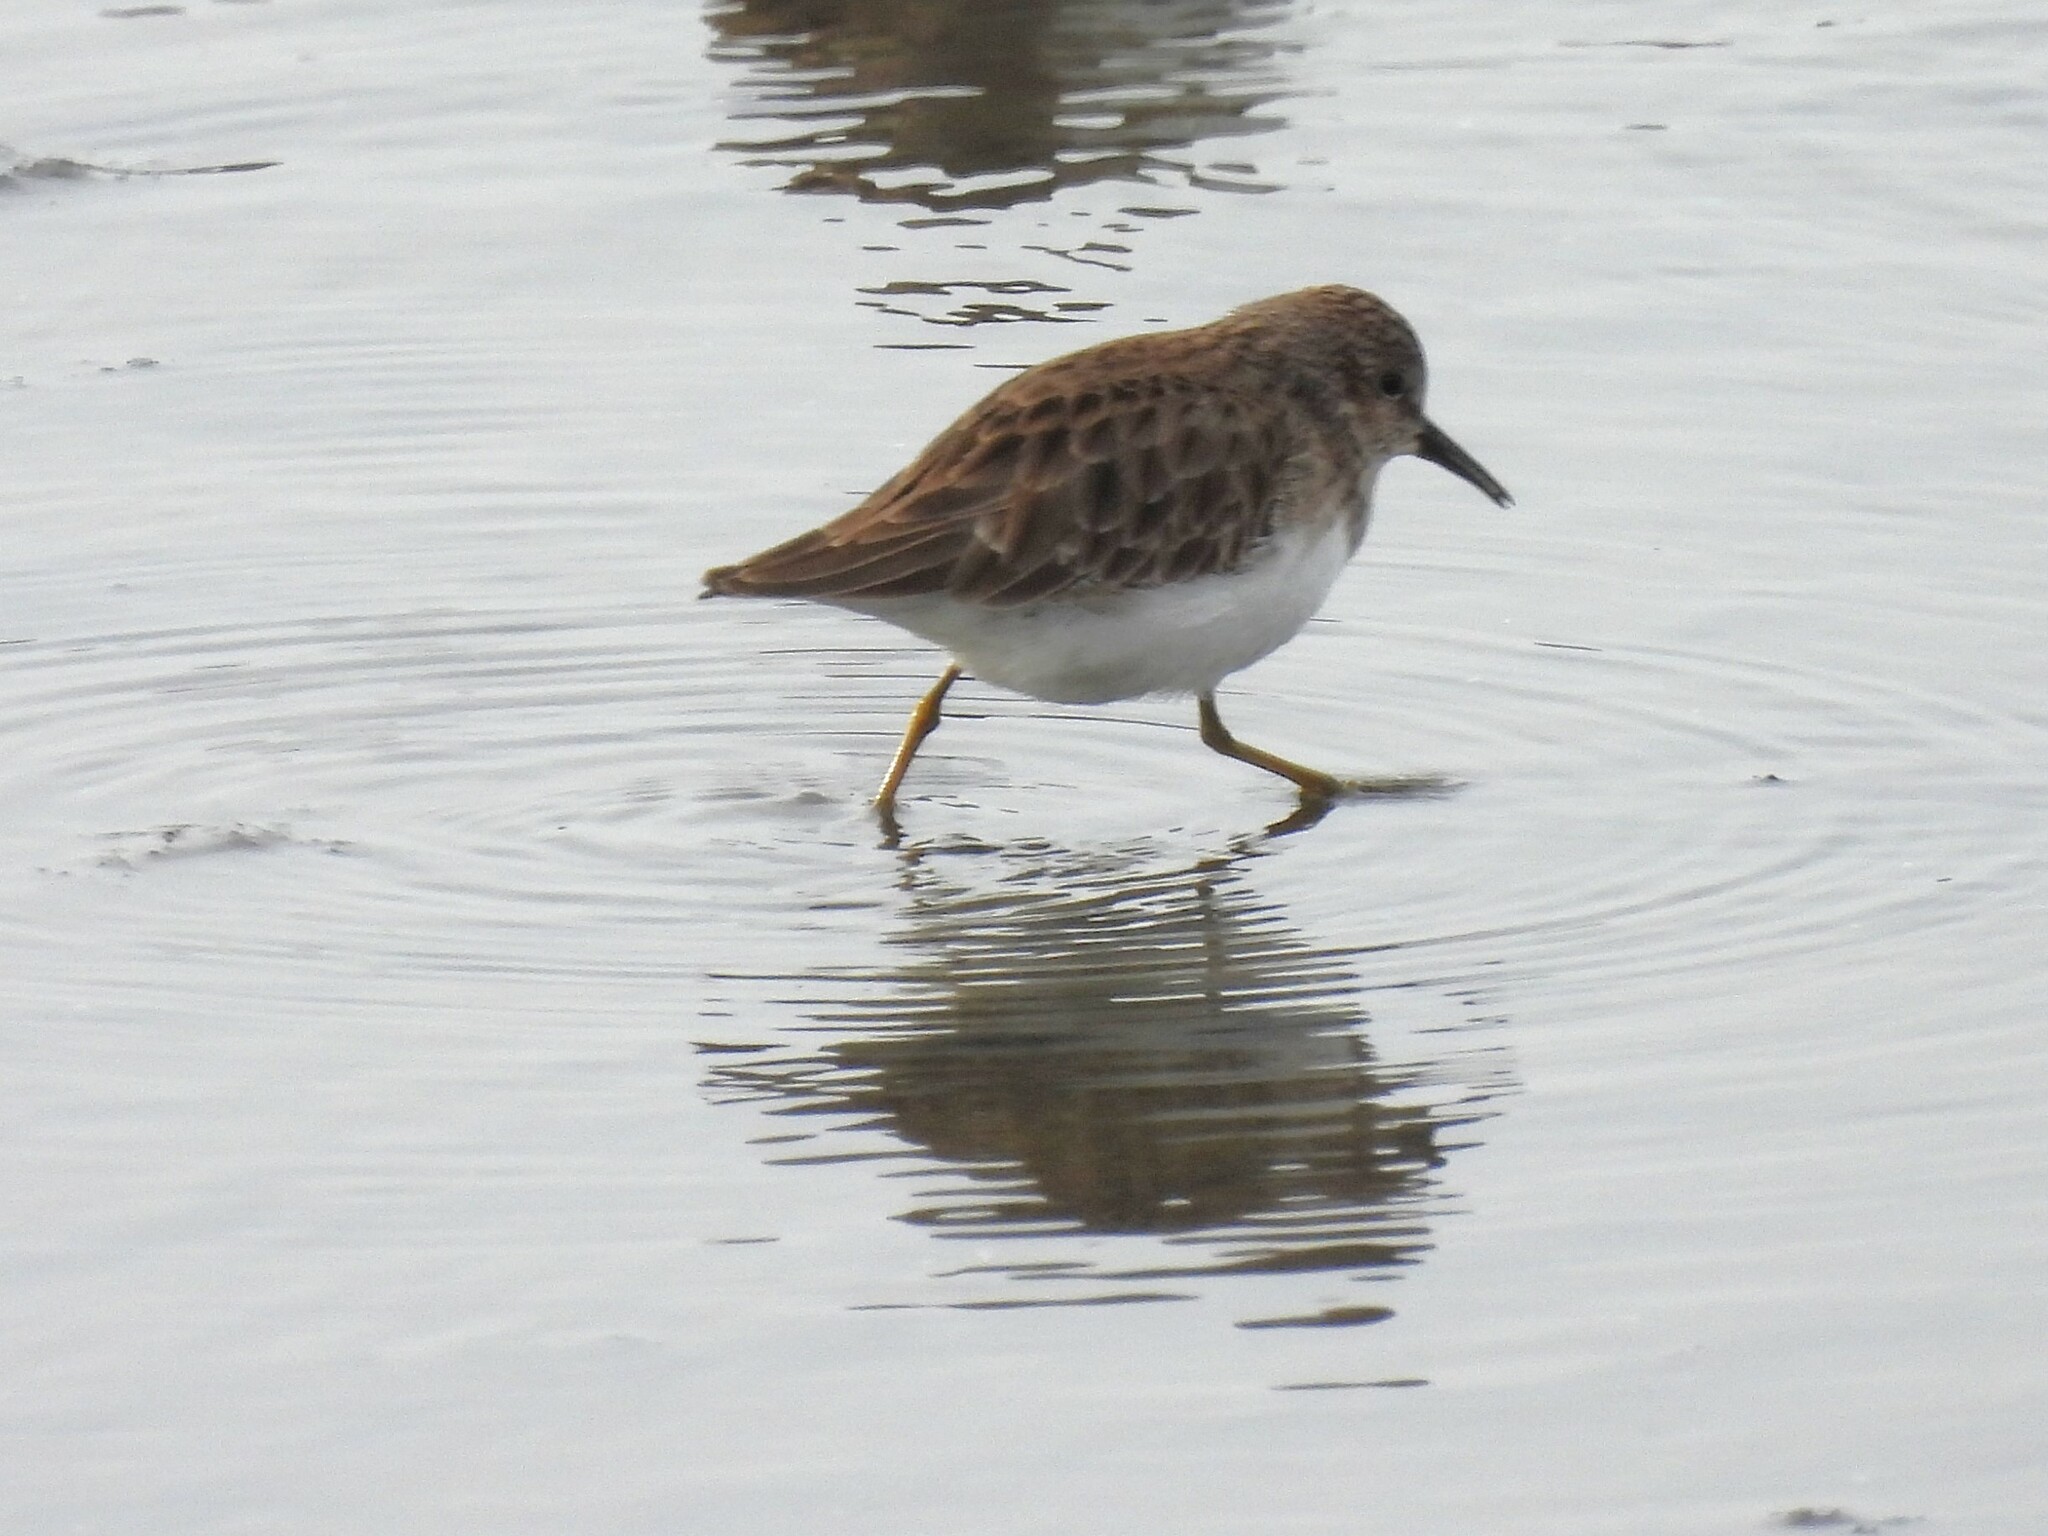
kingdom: Animalia
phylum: Chordata
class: Aves
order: Charadriiformes
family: Scolopacidae
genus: Calidris
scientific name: Calidris minutilla
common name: Least sandpiper
